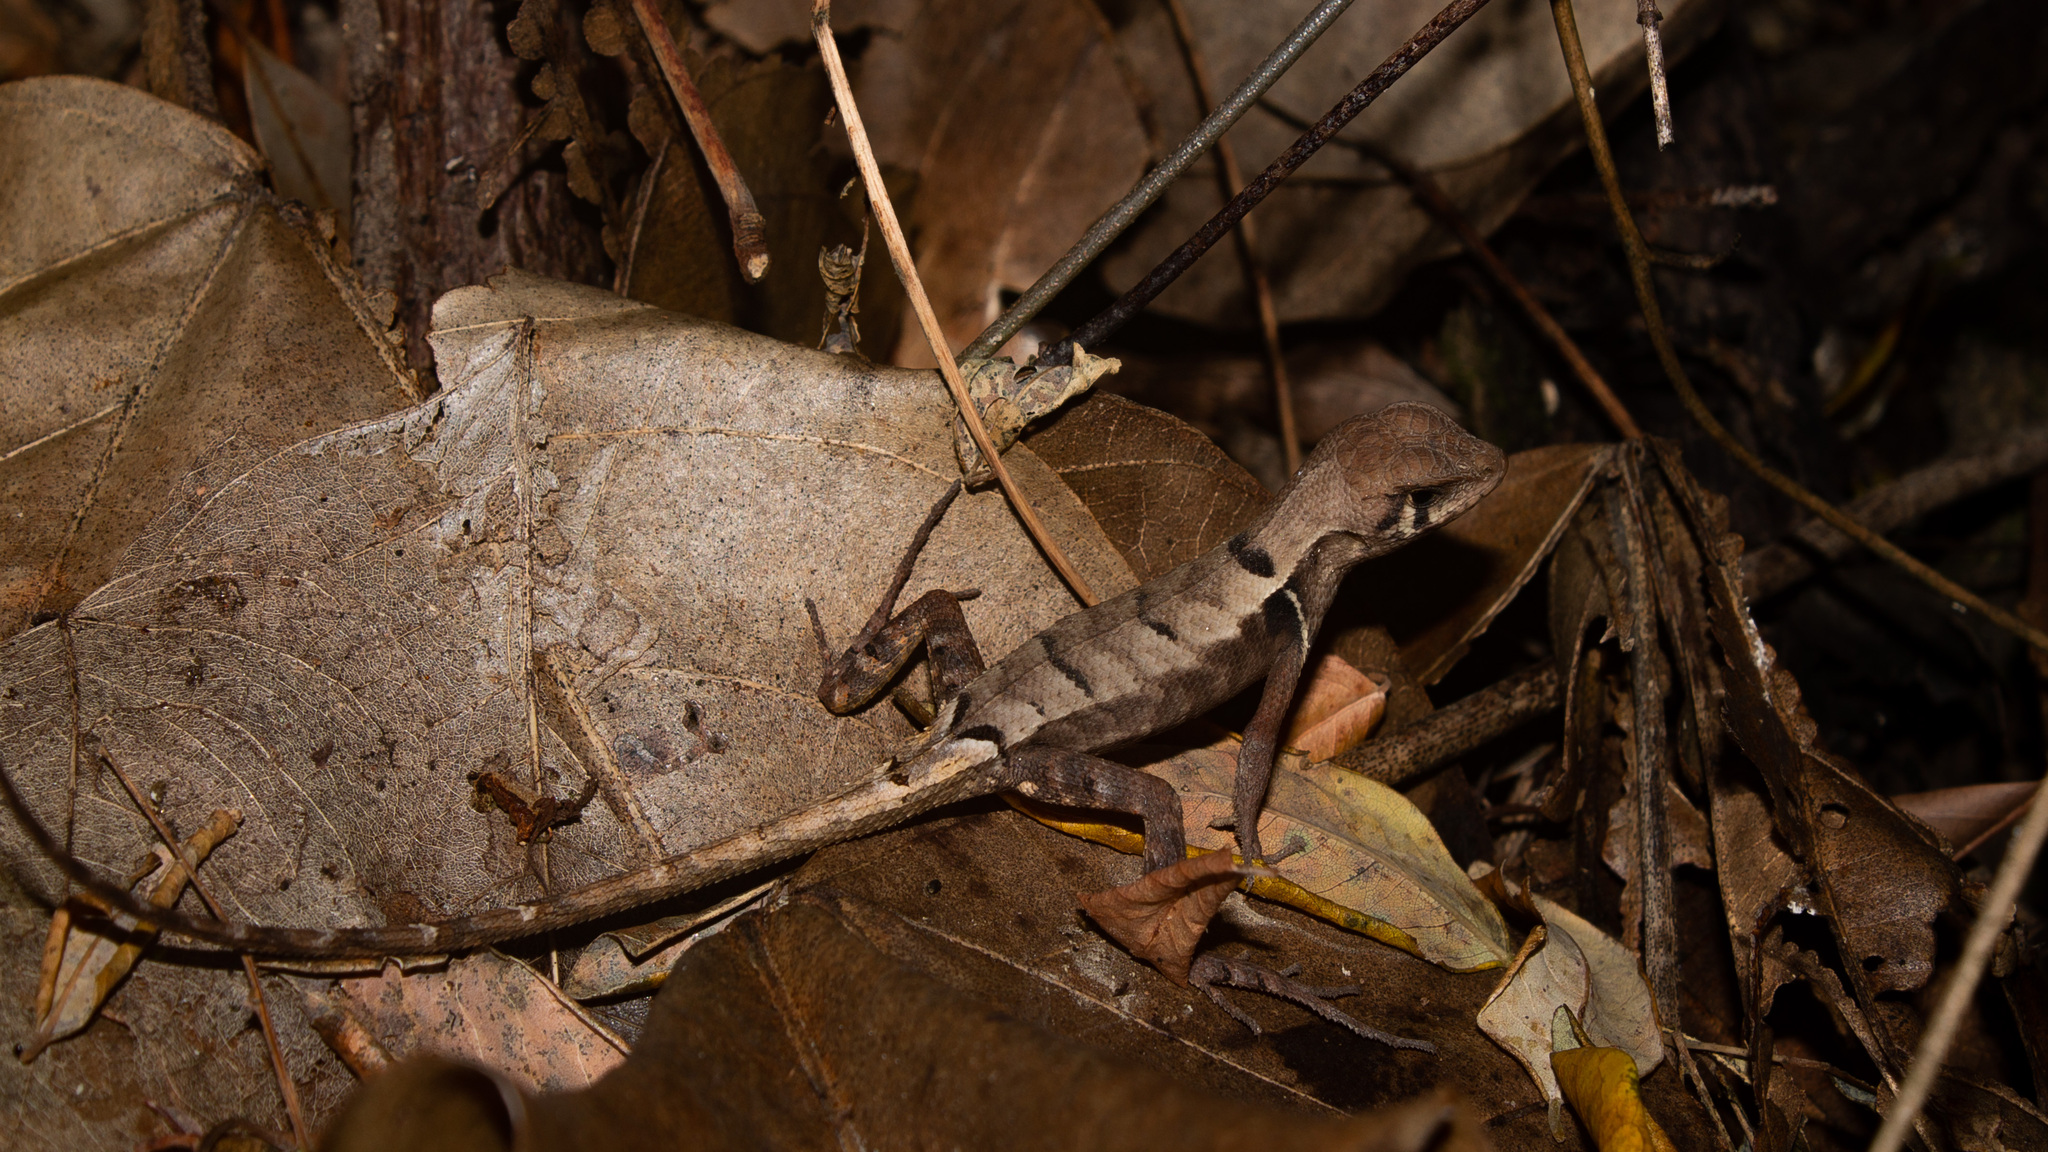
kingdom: Animalia
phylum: Chordata
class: Squamata
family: Tropiduridae
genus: Stenocercus
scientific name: Stenocercus erythrogaster
